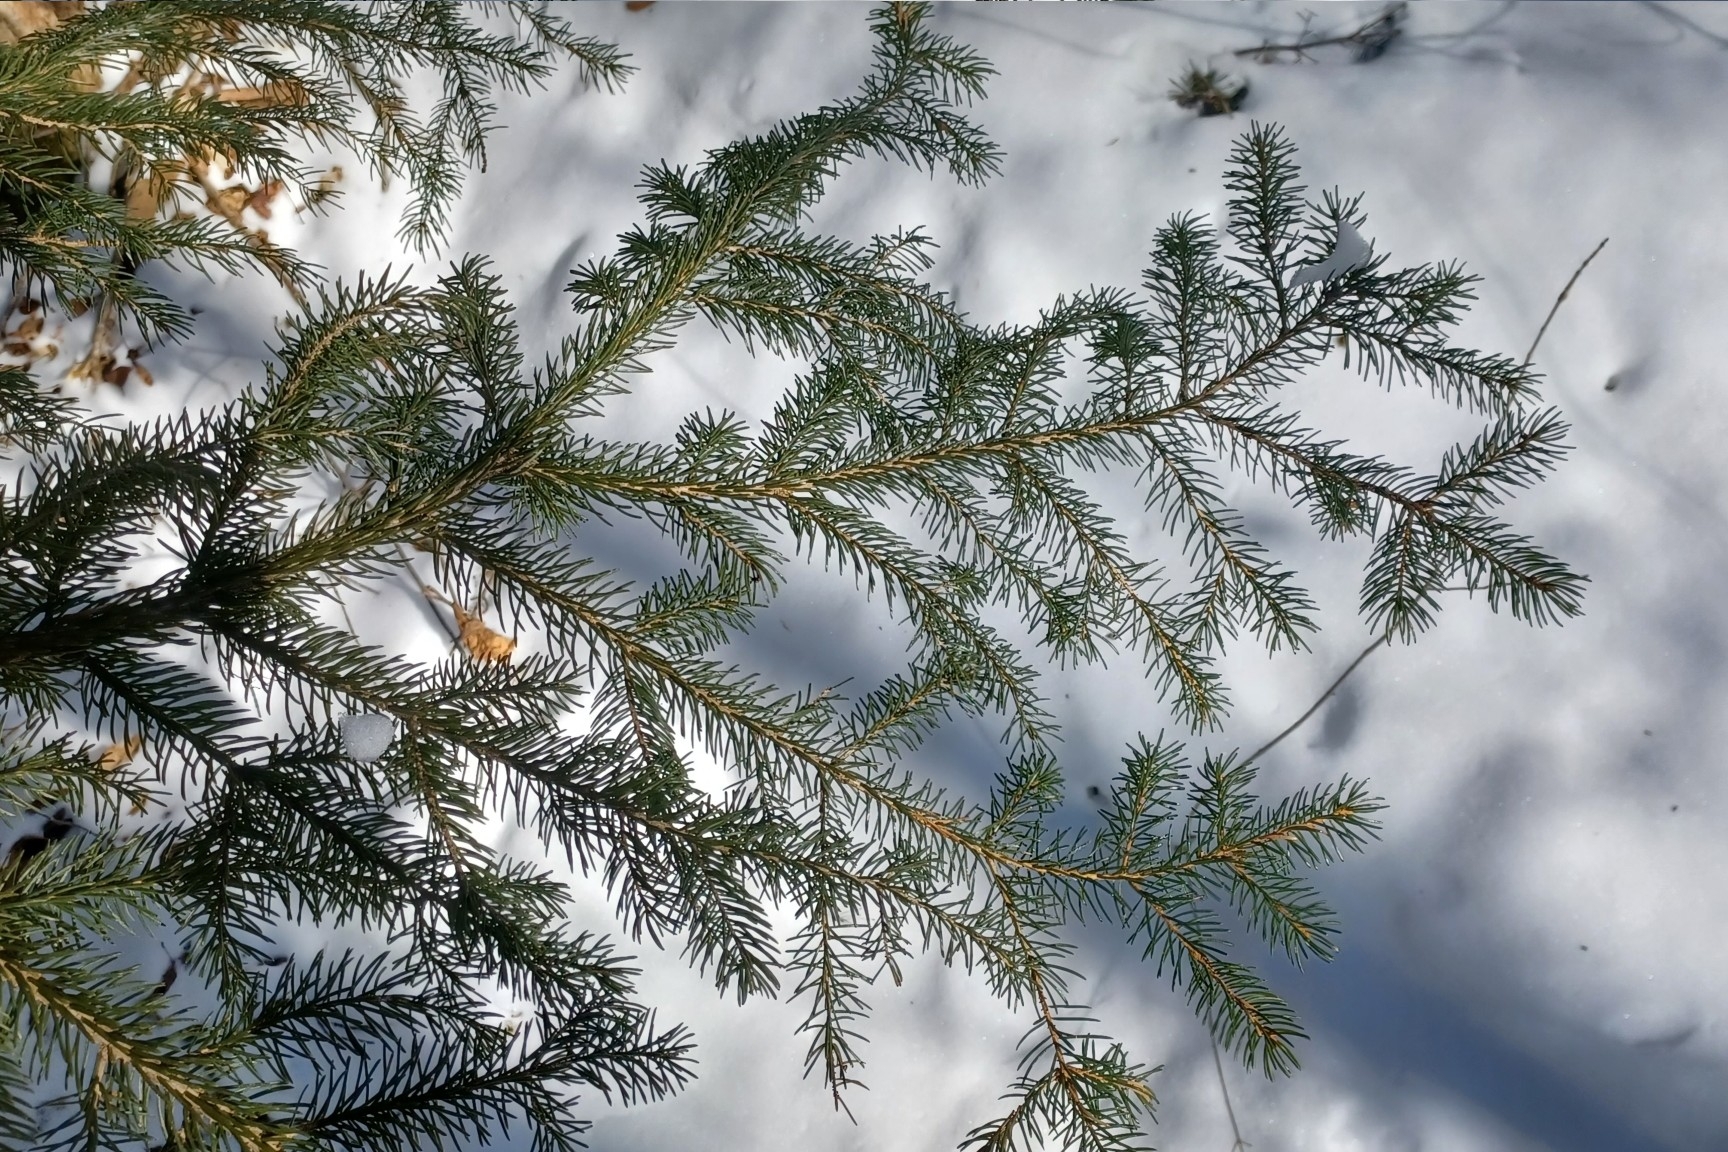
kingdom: Plantae
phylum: Tracheophyta
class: Pinopsida
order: Pinales
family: Pinaceae
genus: Picea
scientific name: Picea rubens
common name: Red spruce
